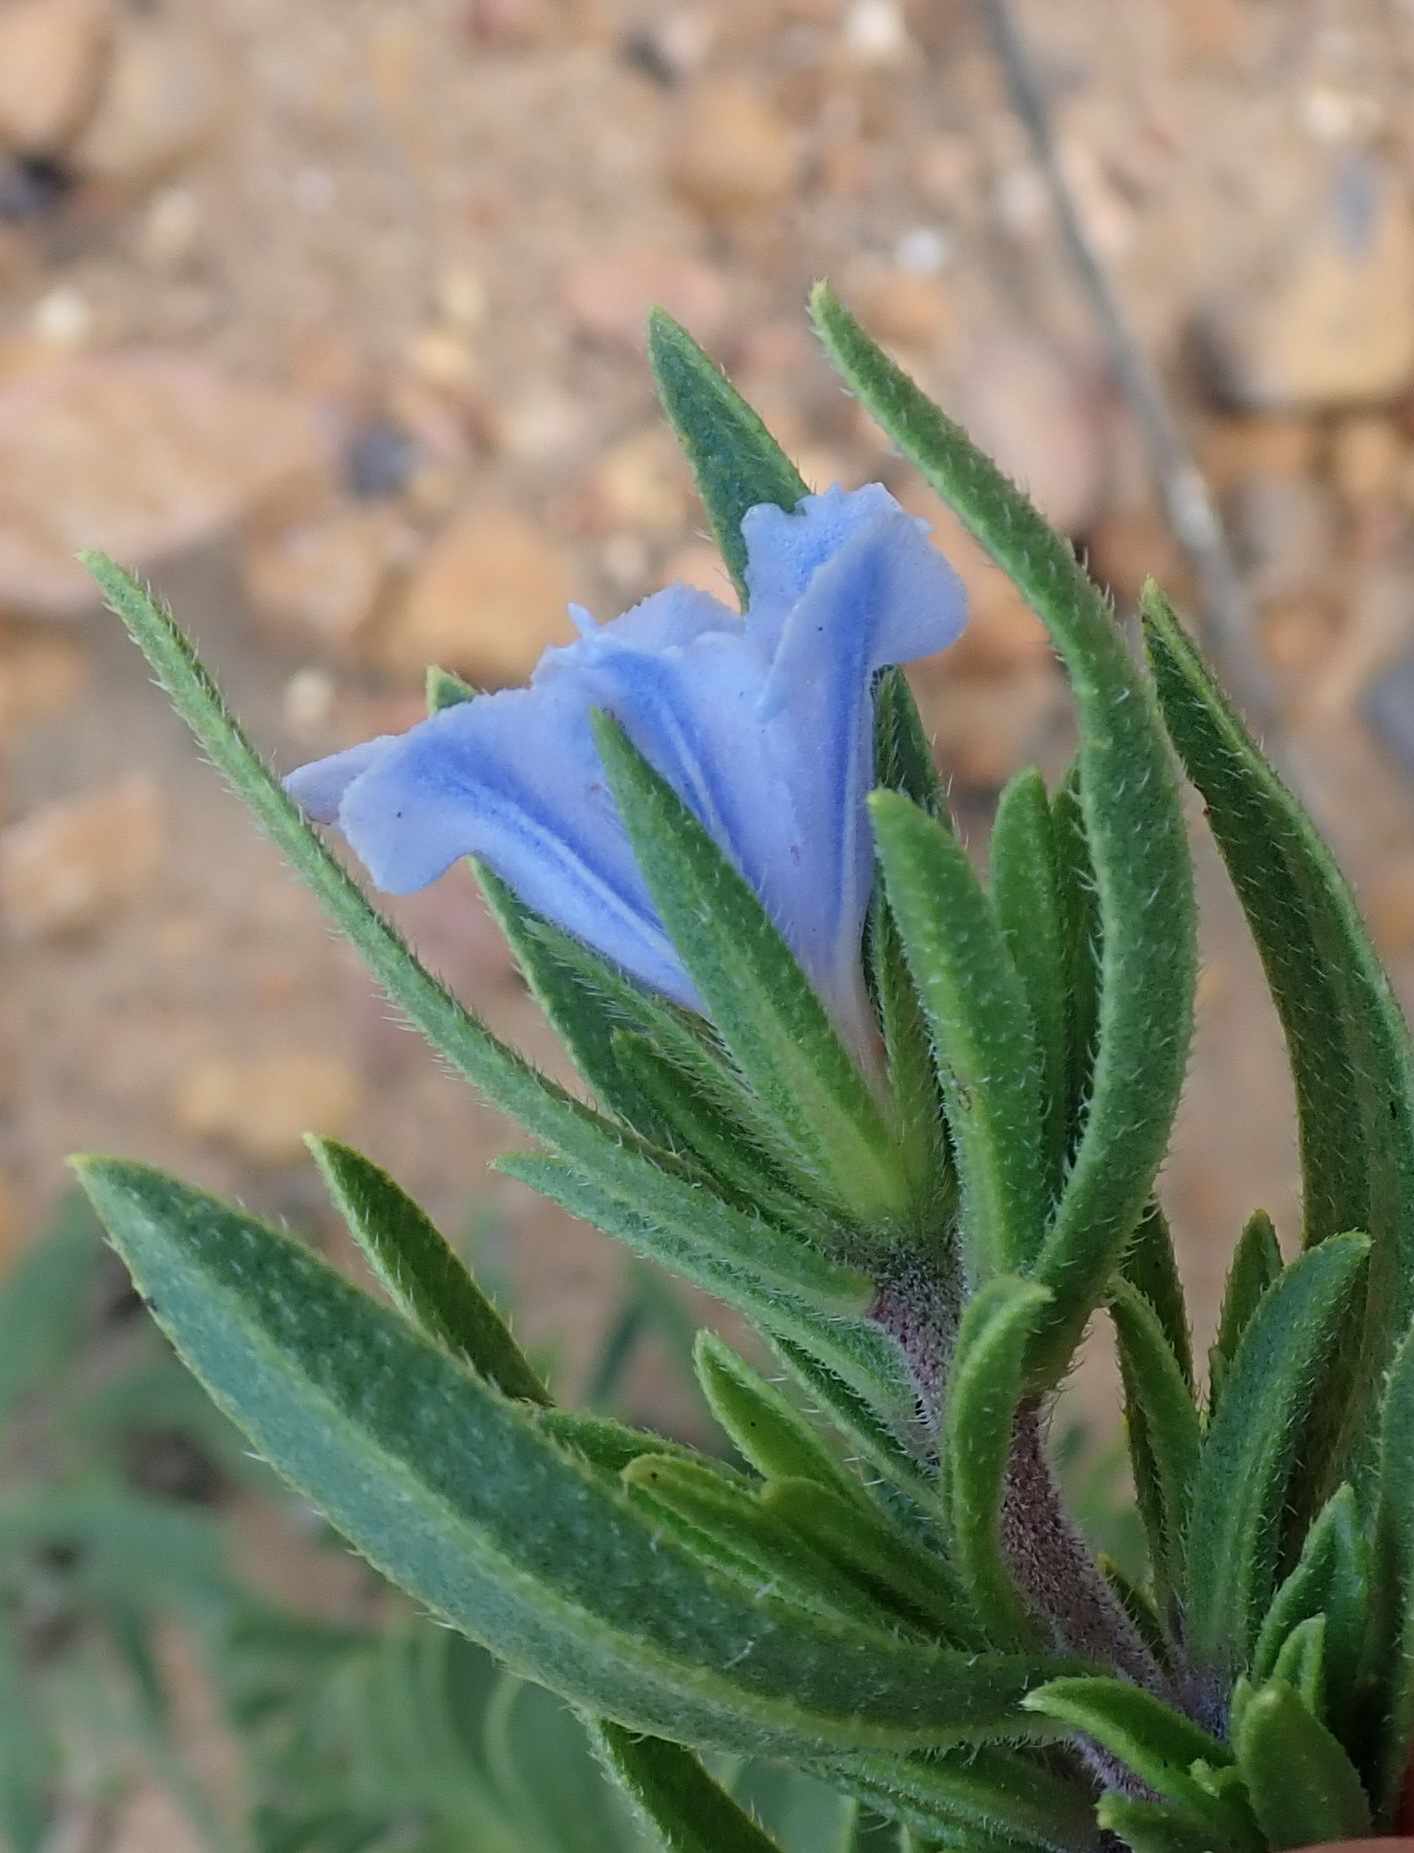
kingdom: Plantae
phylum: Tracheophyta
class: Magnoliopsida
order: Boraginales
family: Boraginaceae
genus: Lobostemon
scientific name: Lobostemon fruticosus
